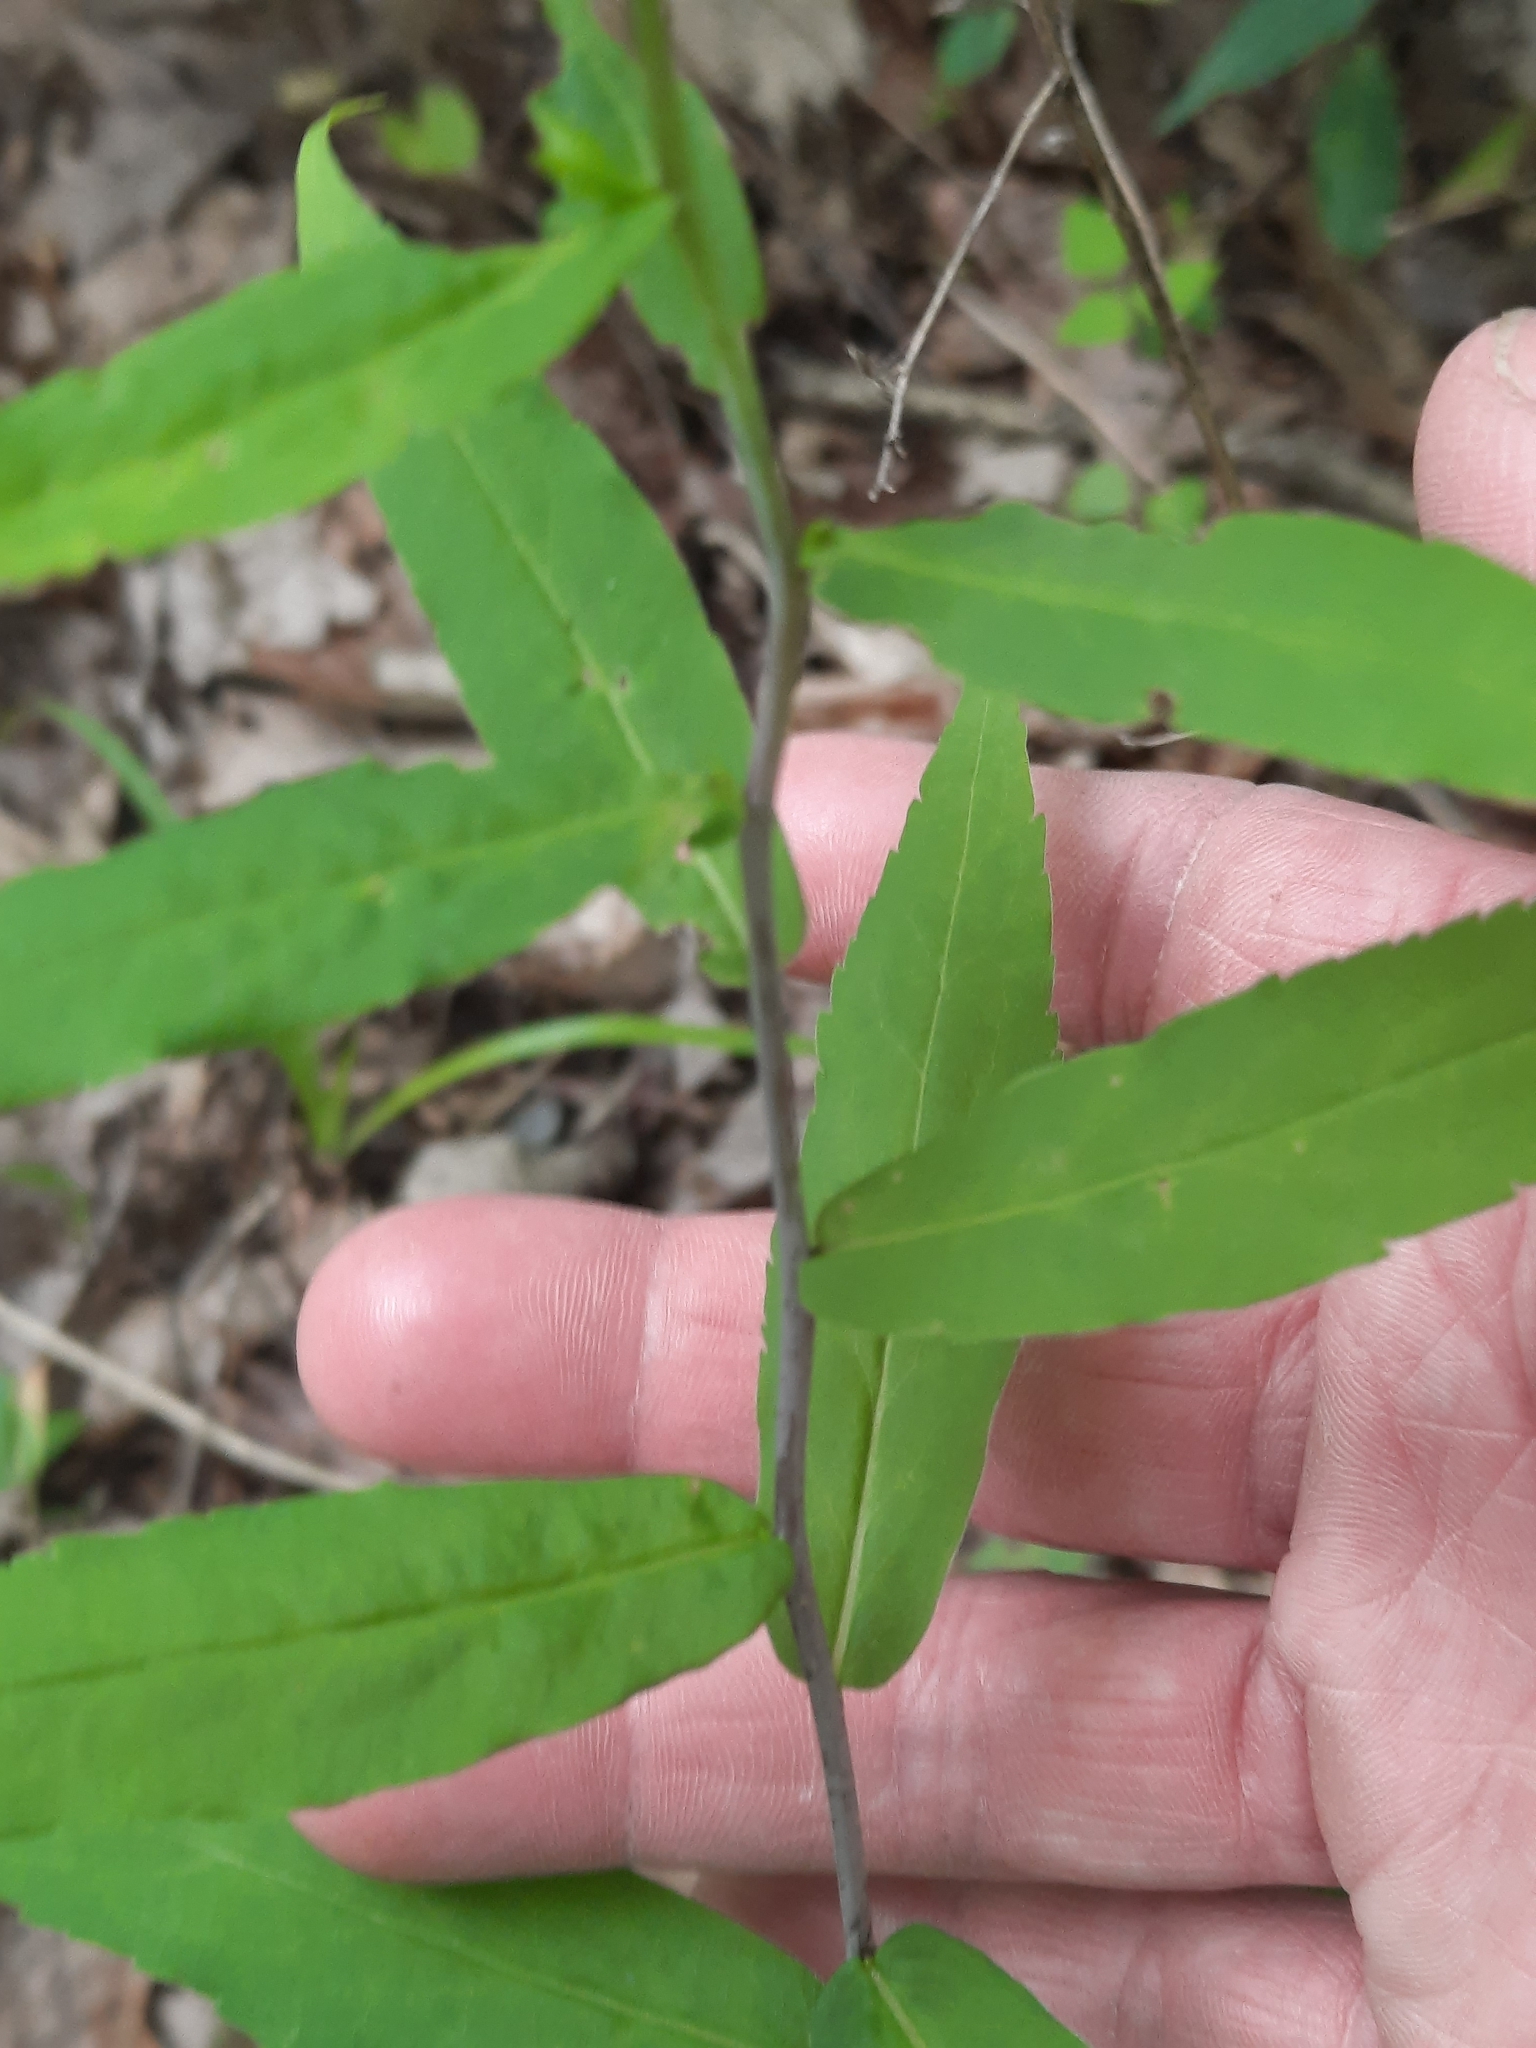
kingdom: Plantae
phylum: Tracheophyta
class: Magnoliopsida
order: Asterales
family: Asteraceae
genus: Solidago
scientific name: Solidago caesia
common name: Woodland goldenrod
